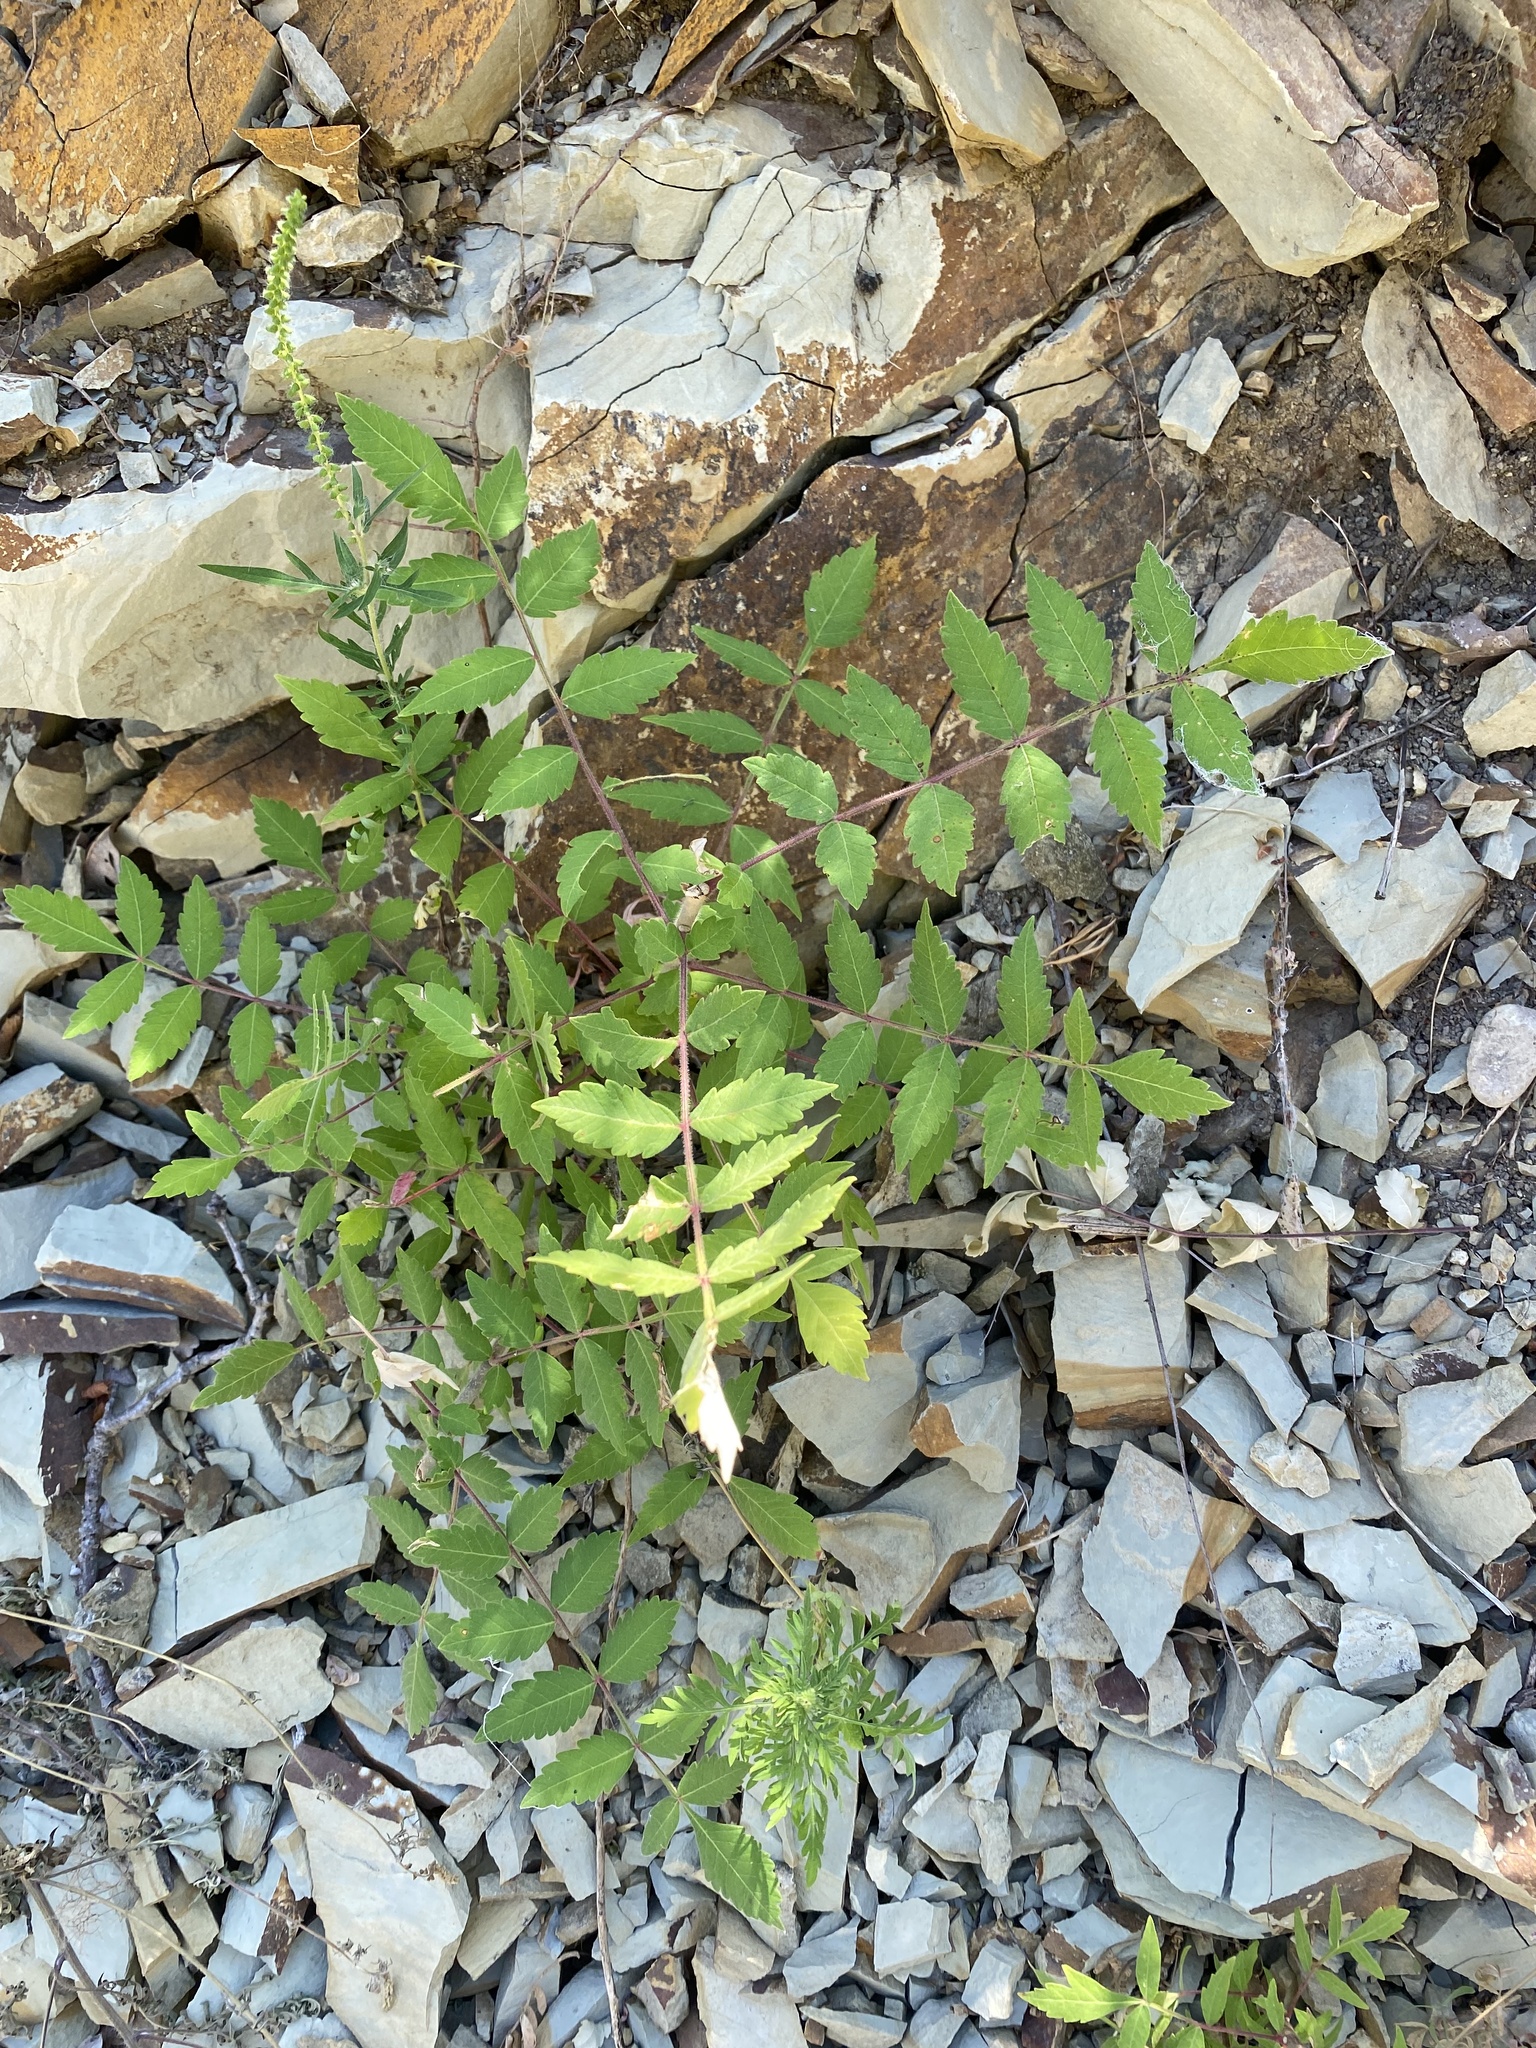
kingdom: Plantae
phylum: Tracheophyta
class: Magnoliopsida
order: Sapindales
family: Anacardiaceae
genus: Rhus
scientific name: Rhus coriaria
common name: Tanner's sumach
